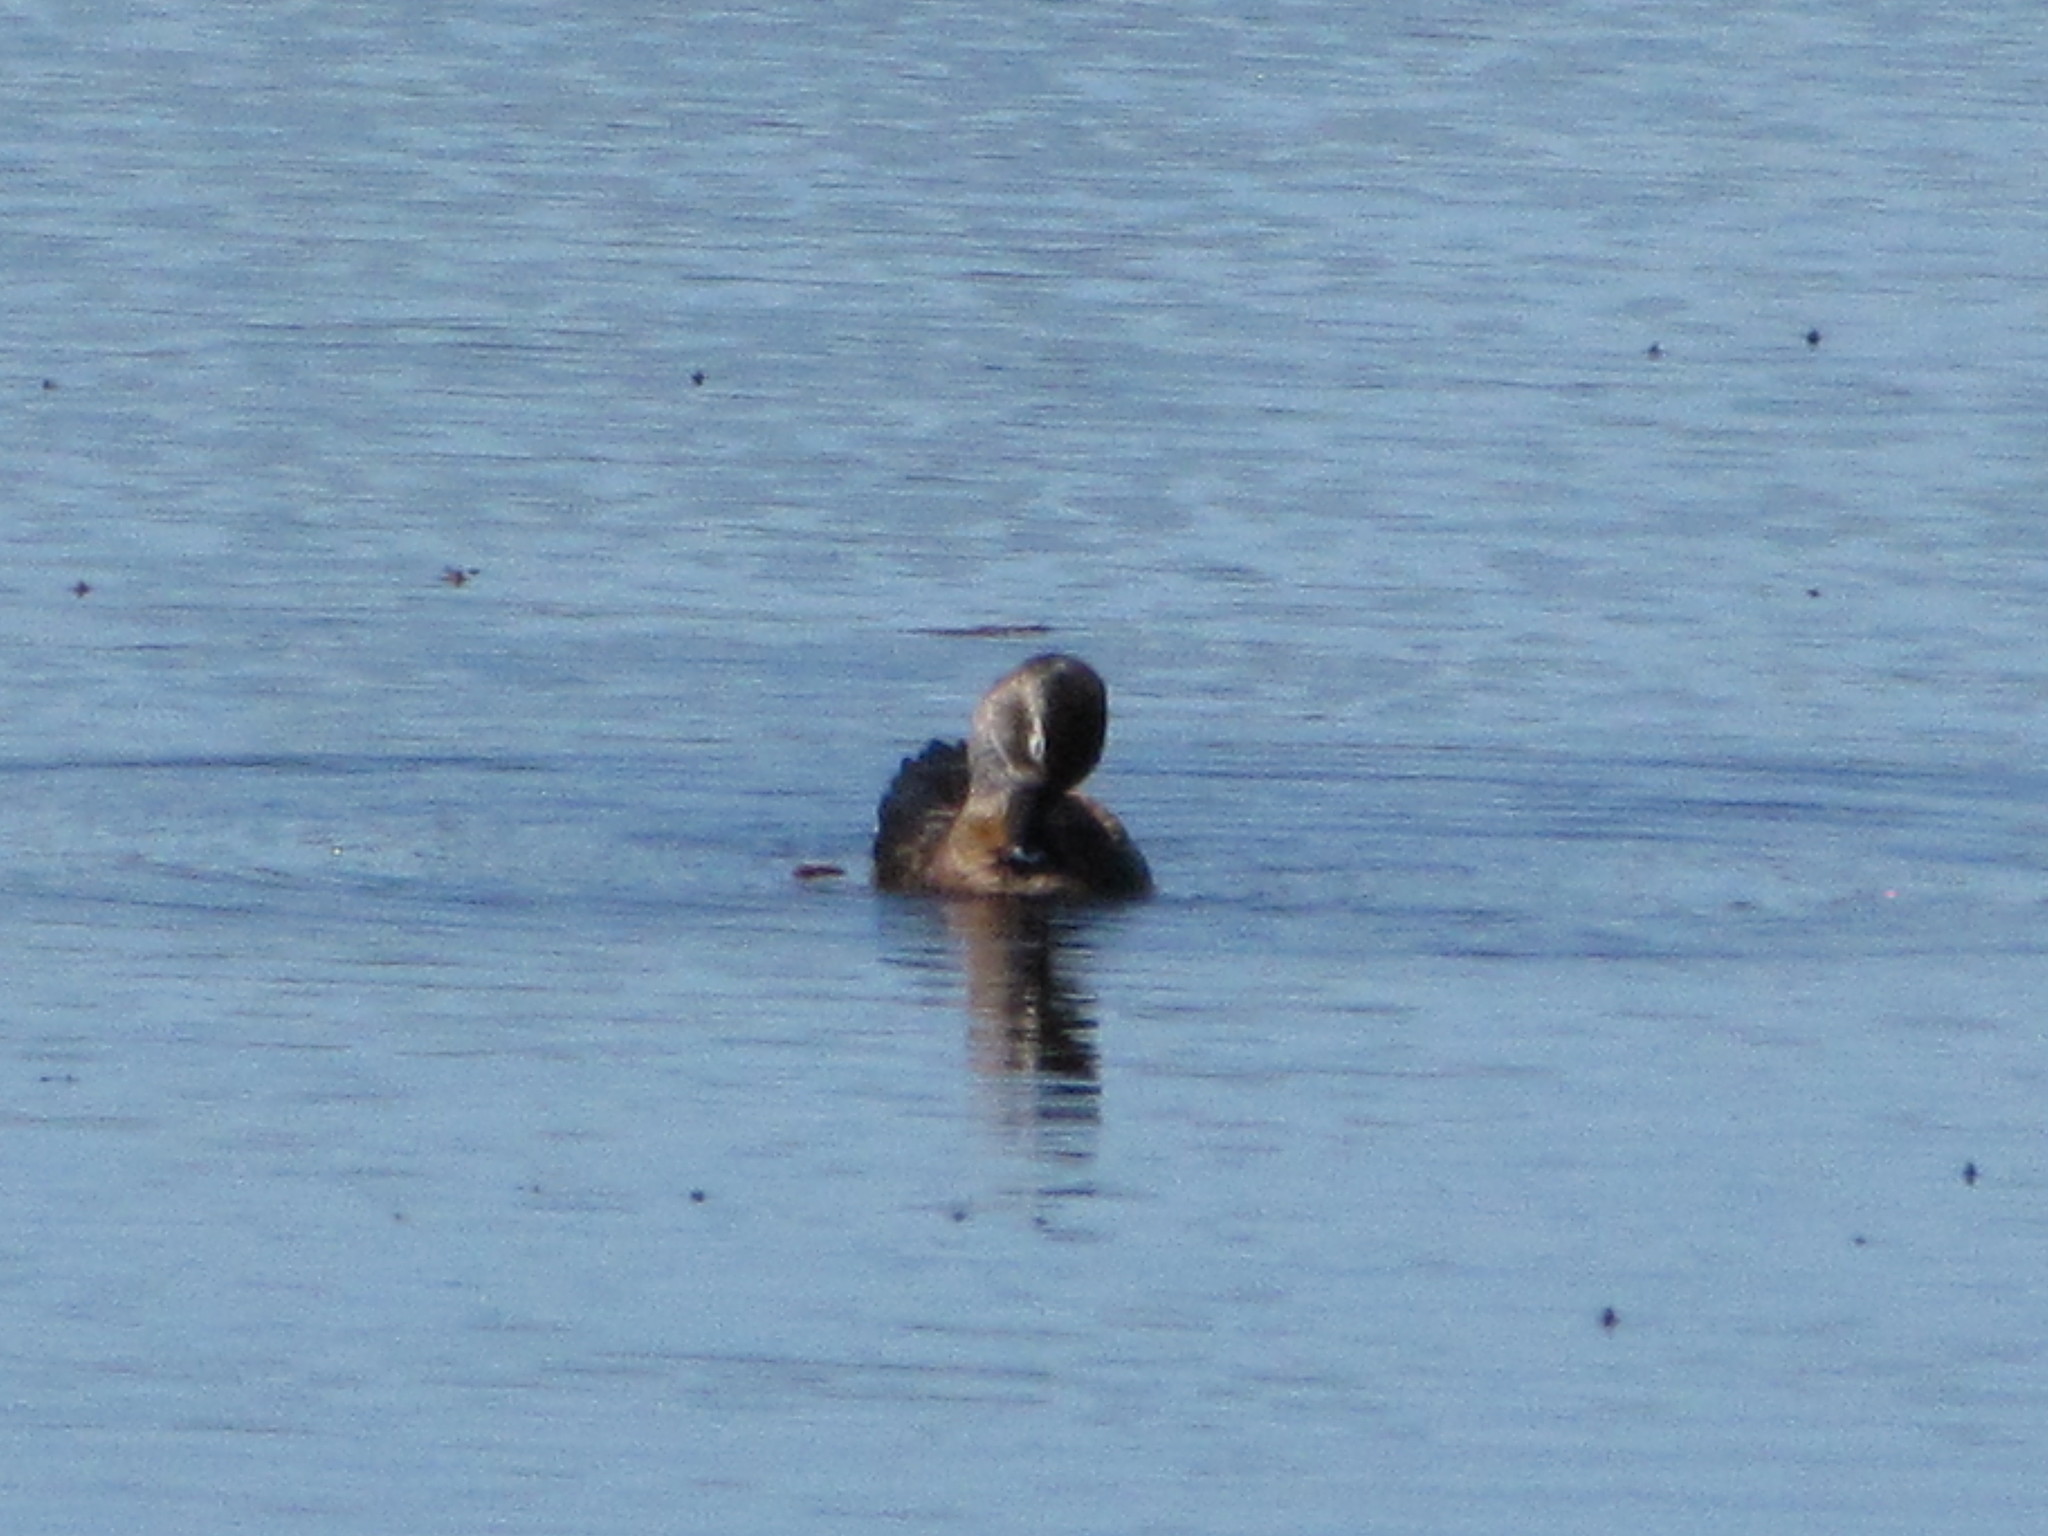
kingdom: Animalia
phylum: Chordata
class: Aves
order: Anseriformes
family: Anatidae
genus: Aythya
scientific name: Aythya collaris
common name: Ring-necked duck
